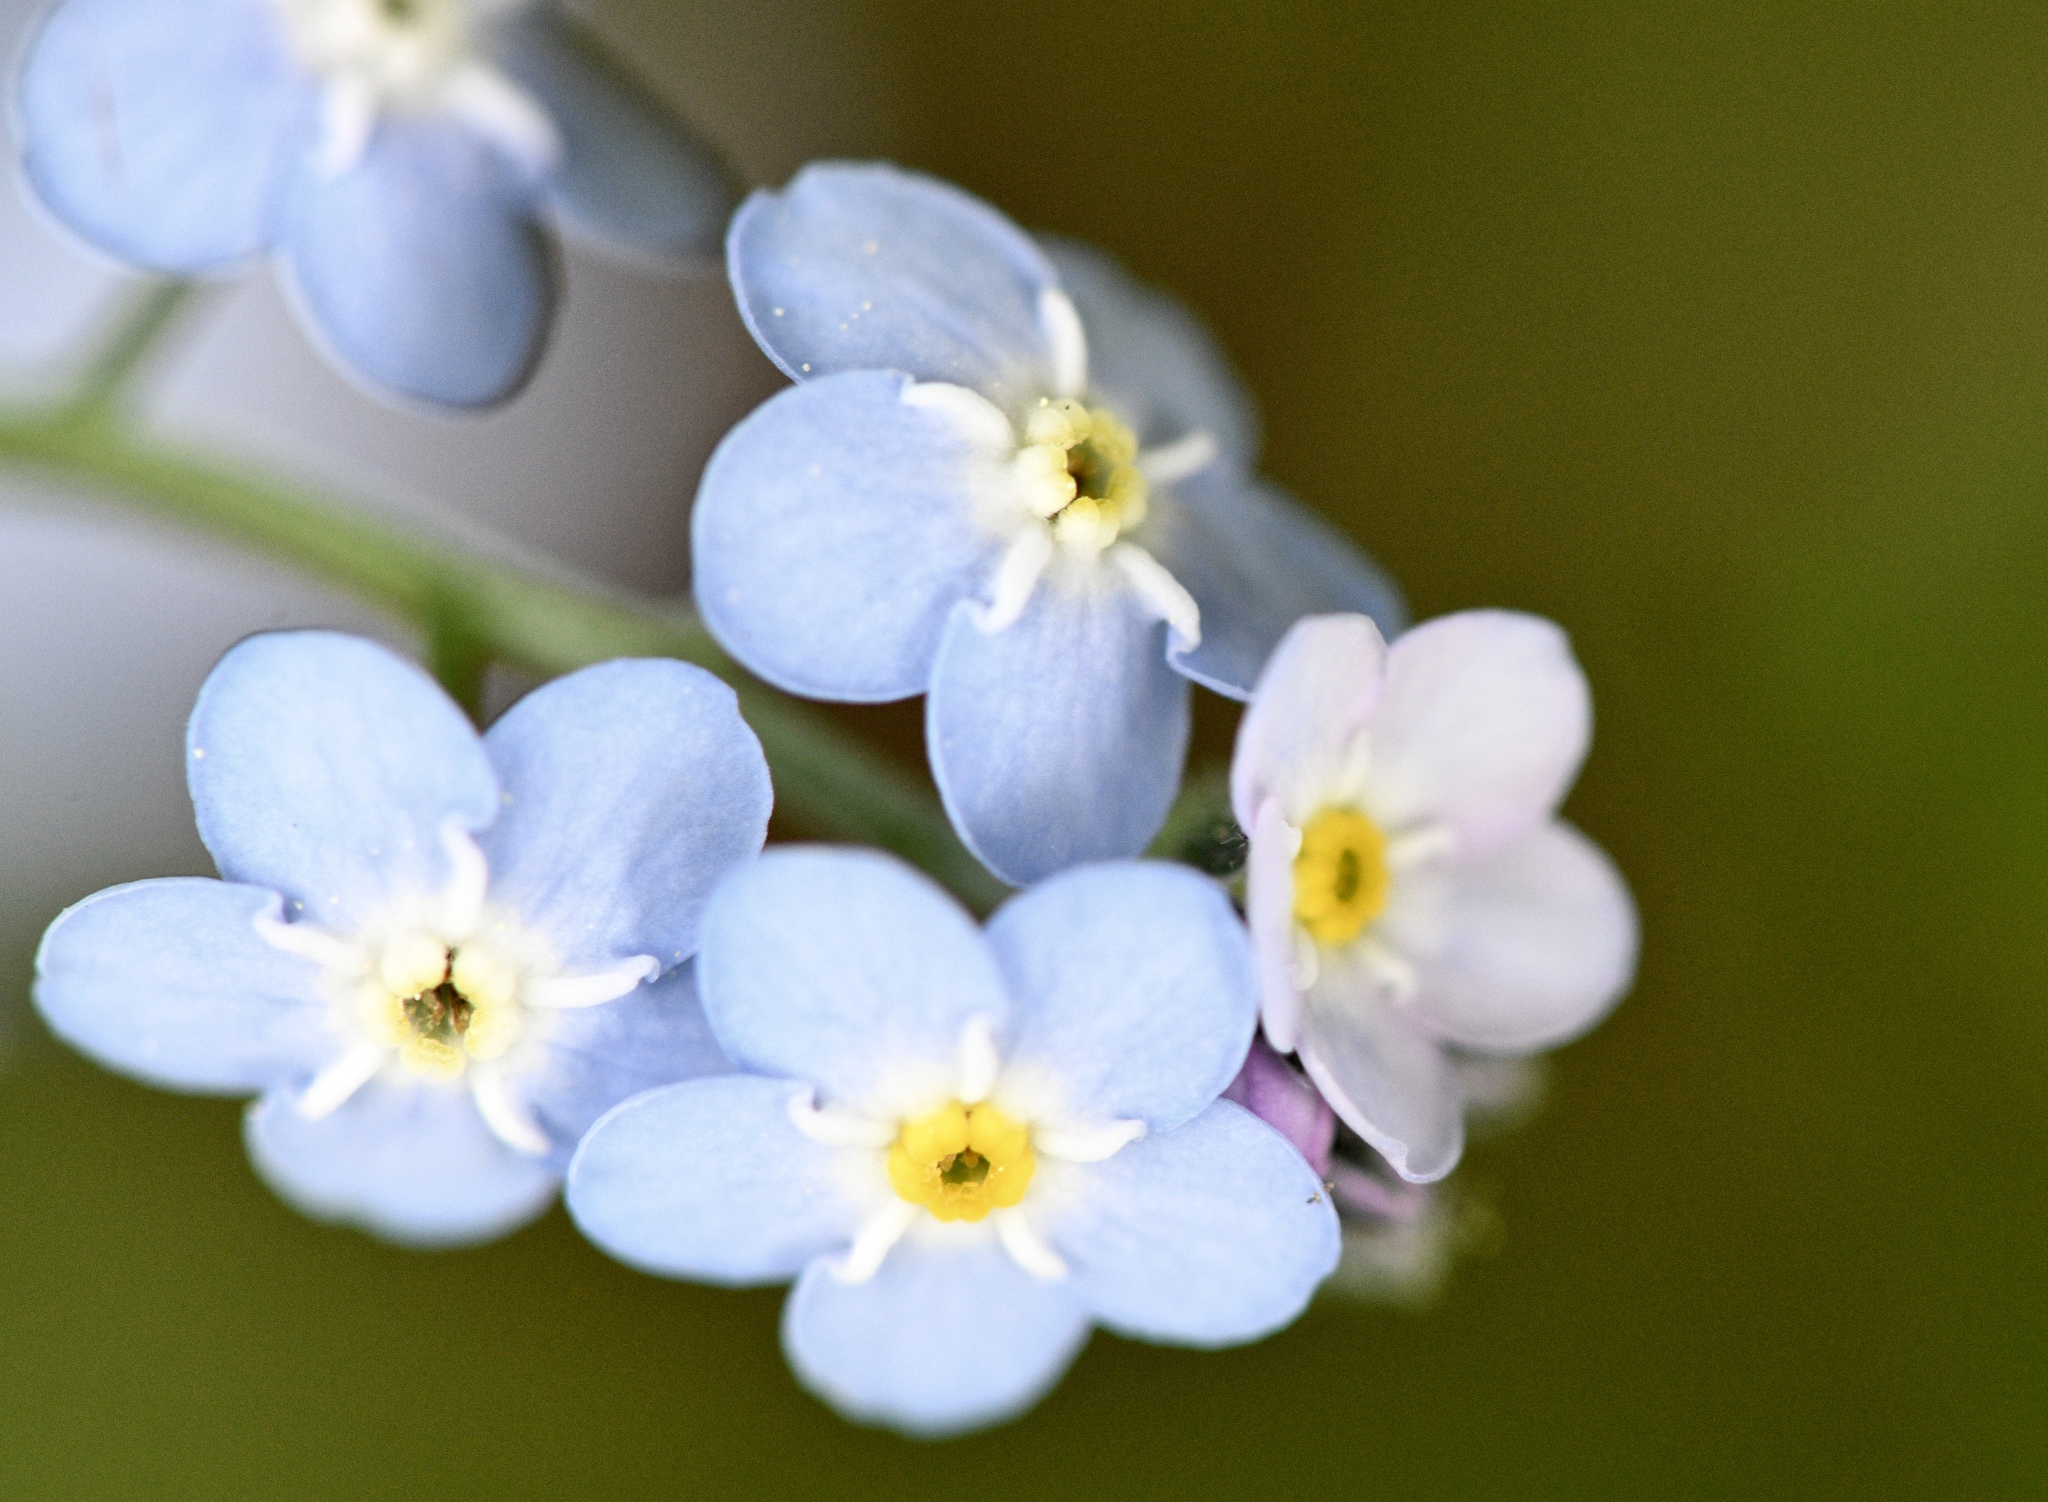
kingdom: Plantae
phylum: Tracheophyta
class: Magnoliopsida
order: Boraginales
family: Boraginaceae
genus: Myosotis
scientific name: Myosotis latifolia
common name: Broadleaf forget-me-not
